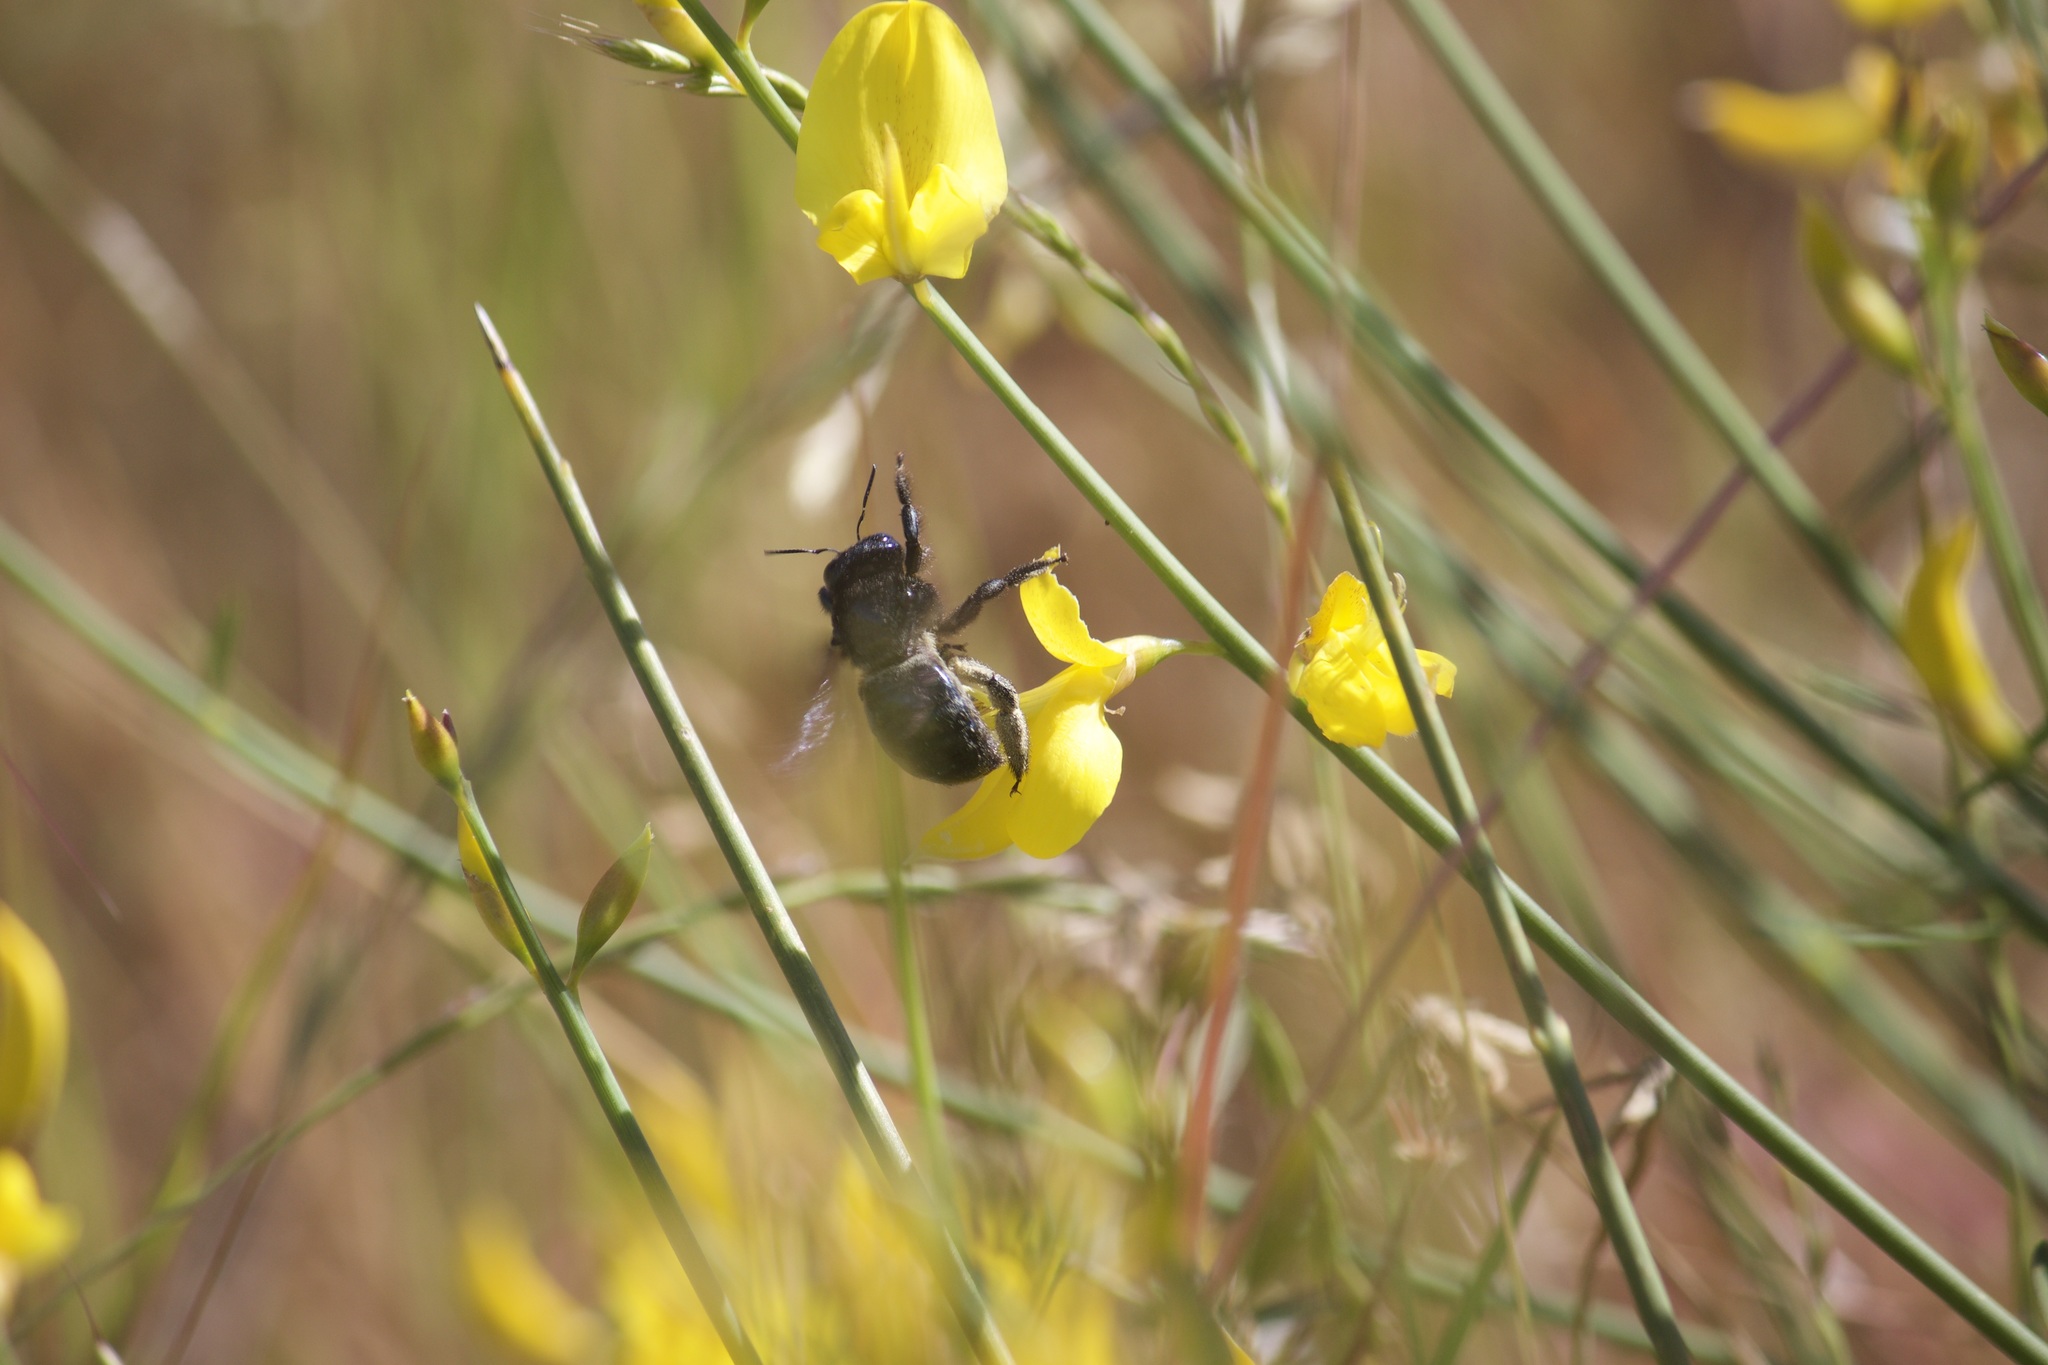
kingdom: Animalia
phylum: Arthropoda
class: Insecta
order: Hymenoptera
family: Apidae
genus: Xylocopa
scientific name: Xylocopa californica
